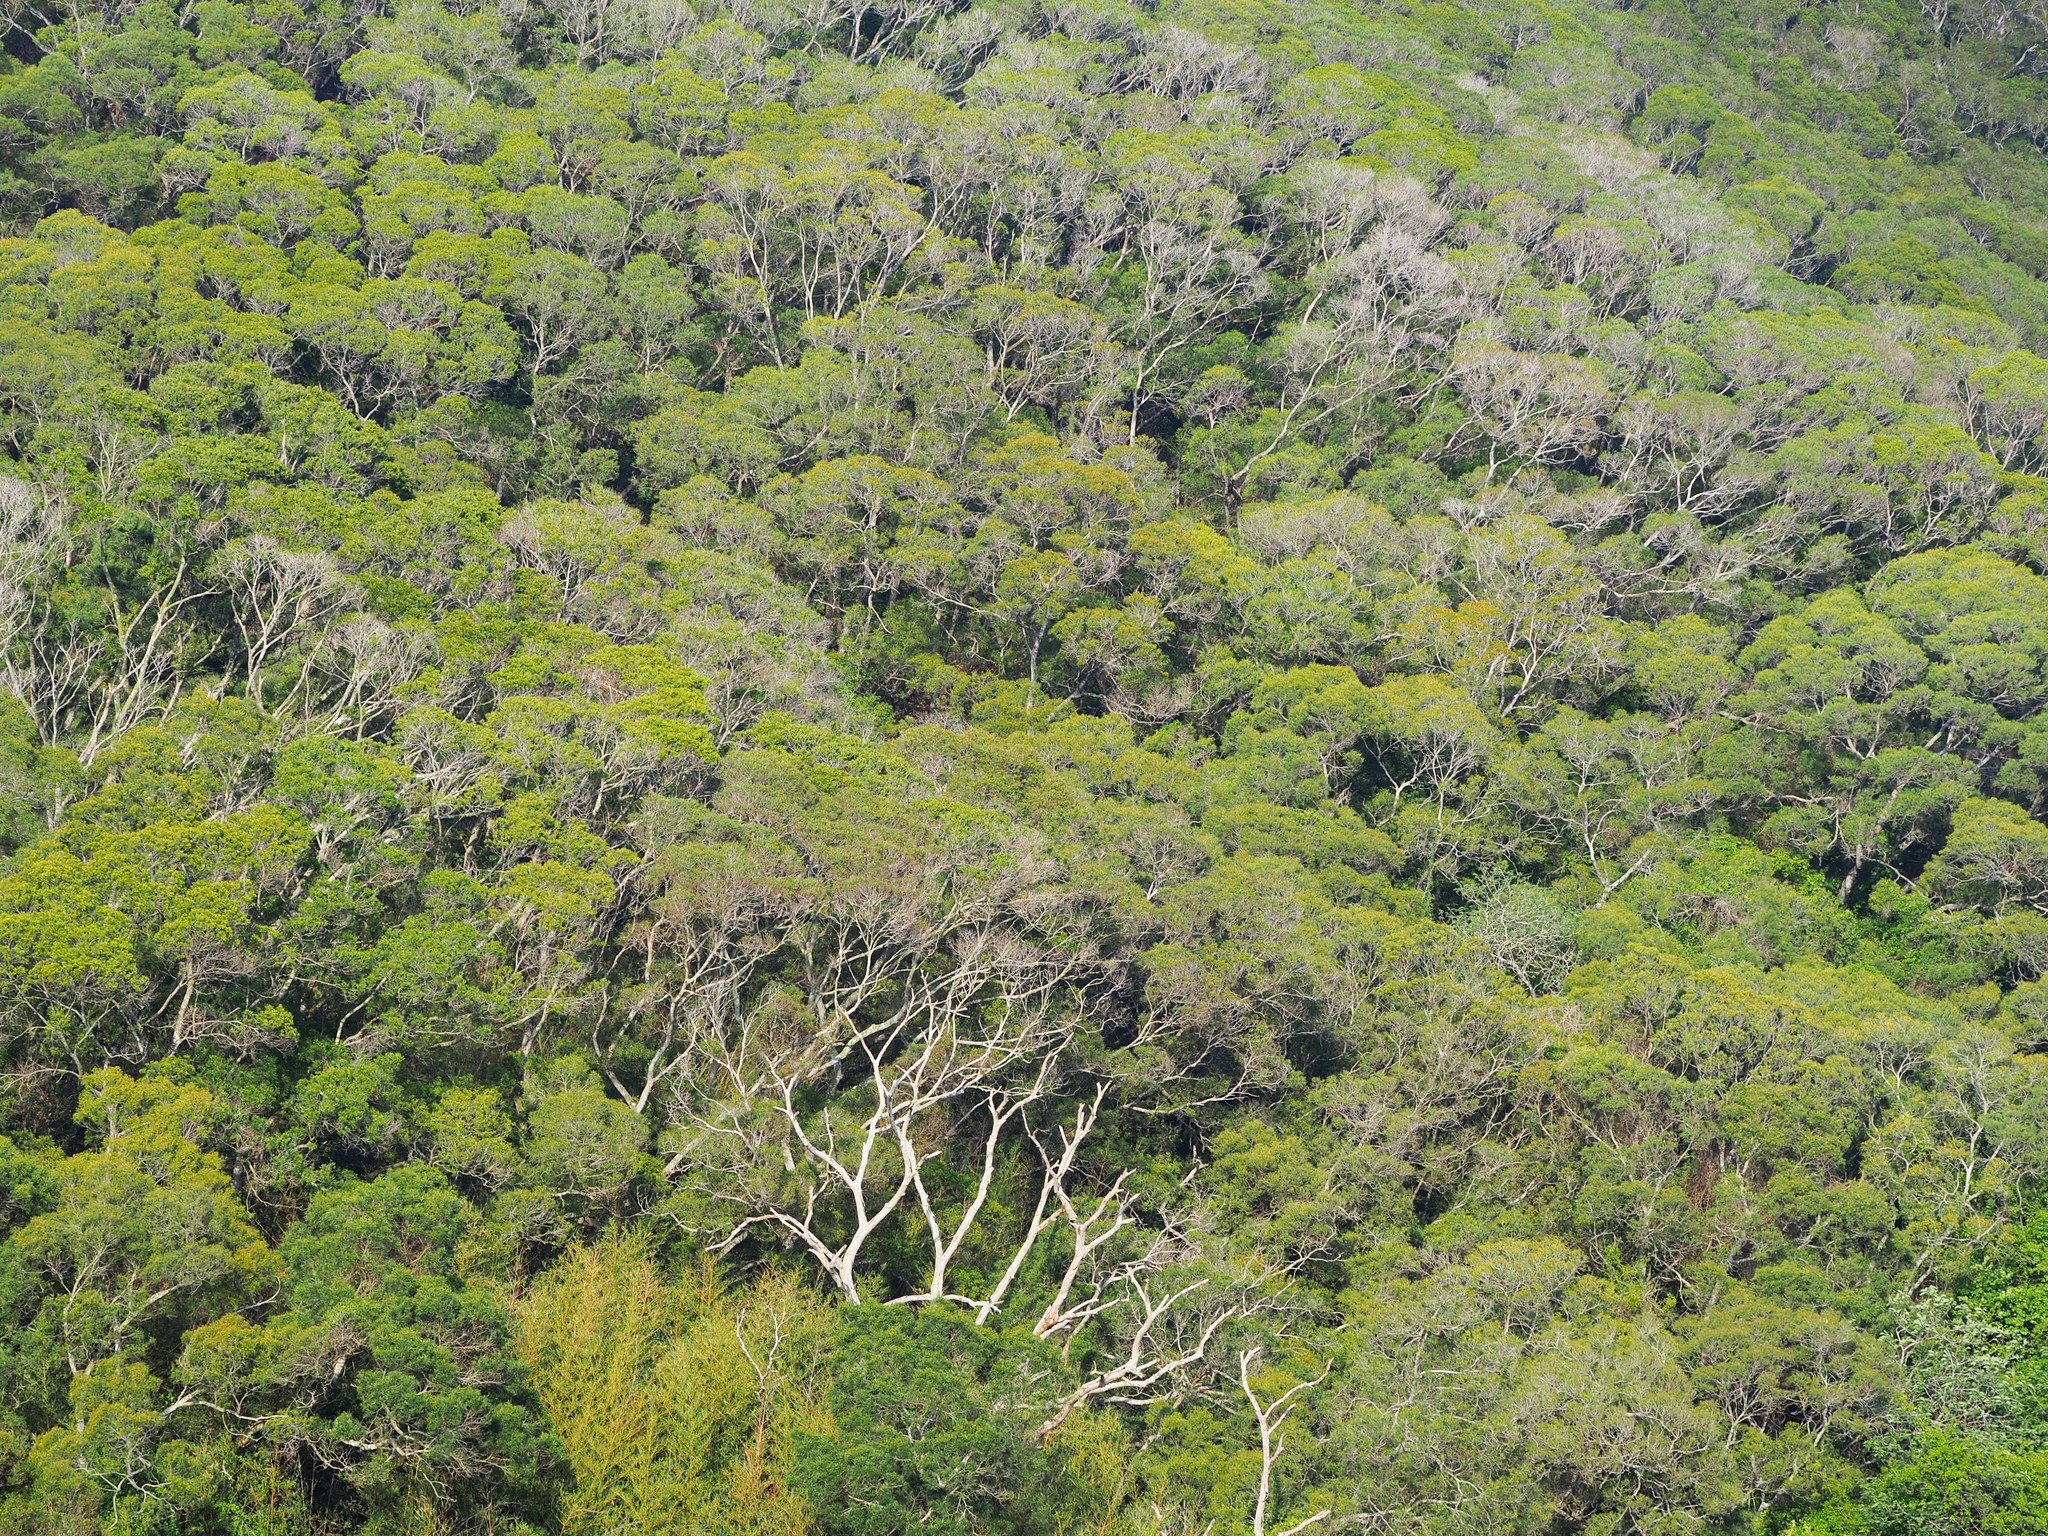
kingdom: Plantae
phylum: Tracheophyta
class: Magnoliopsida
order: Fabales
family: Fabaceae
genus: Acacia
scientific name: Acacia confusa
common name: Formosan koa
